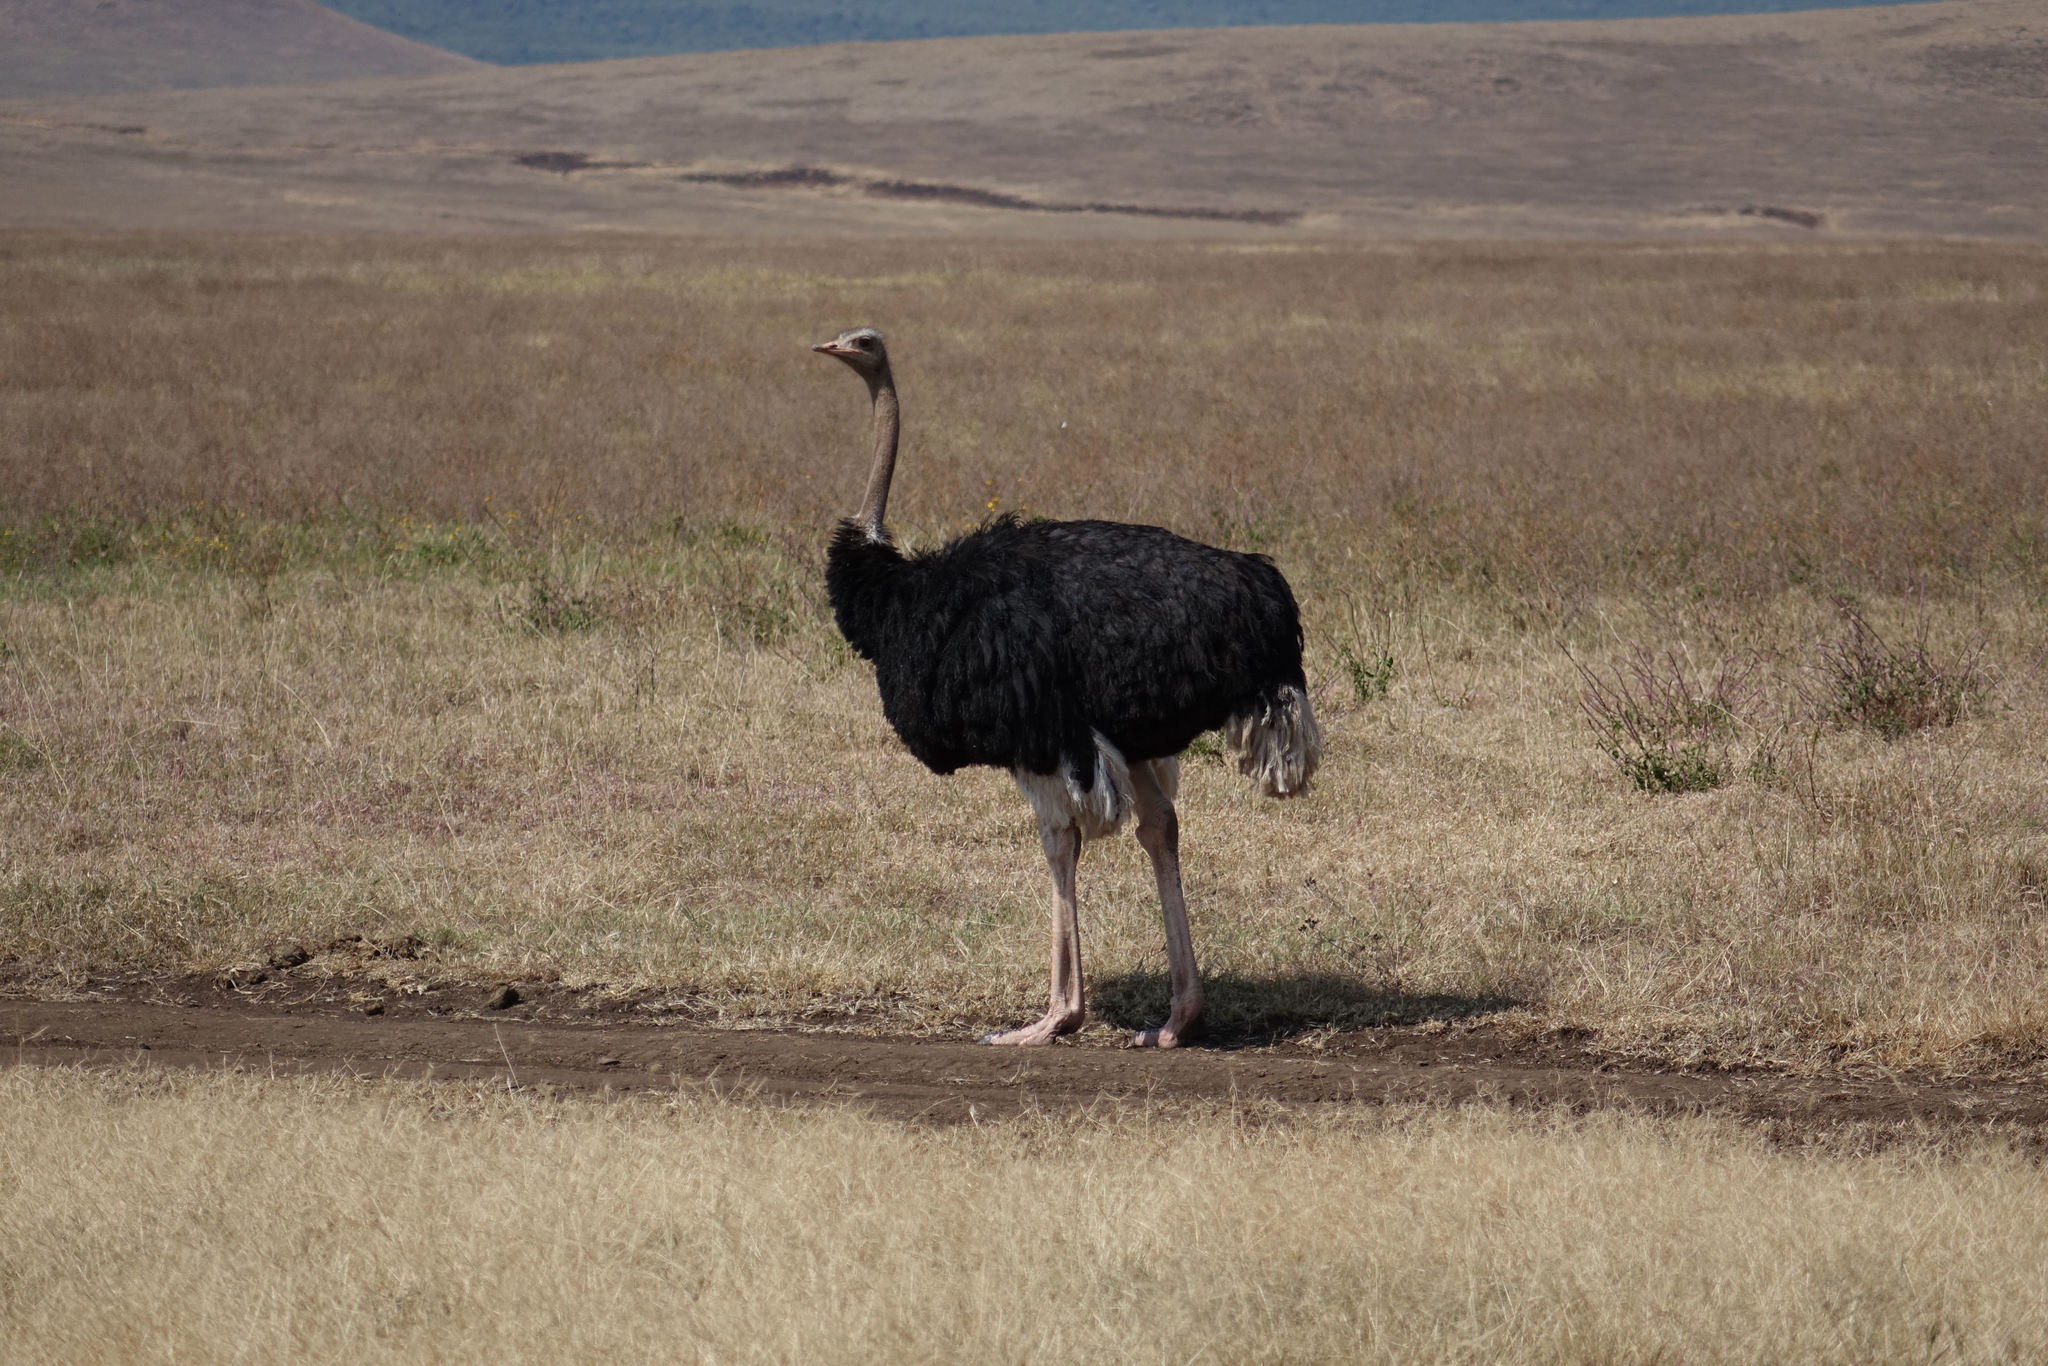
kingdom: Animalia
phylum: Chordata
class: Aves
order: Struthioniformes
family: Struthionidae
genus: Struthio
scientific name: Struthio camelus
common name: Common ostrich
